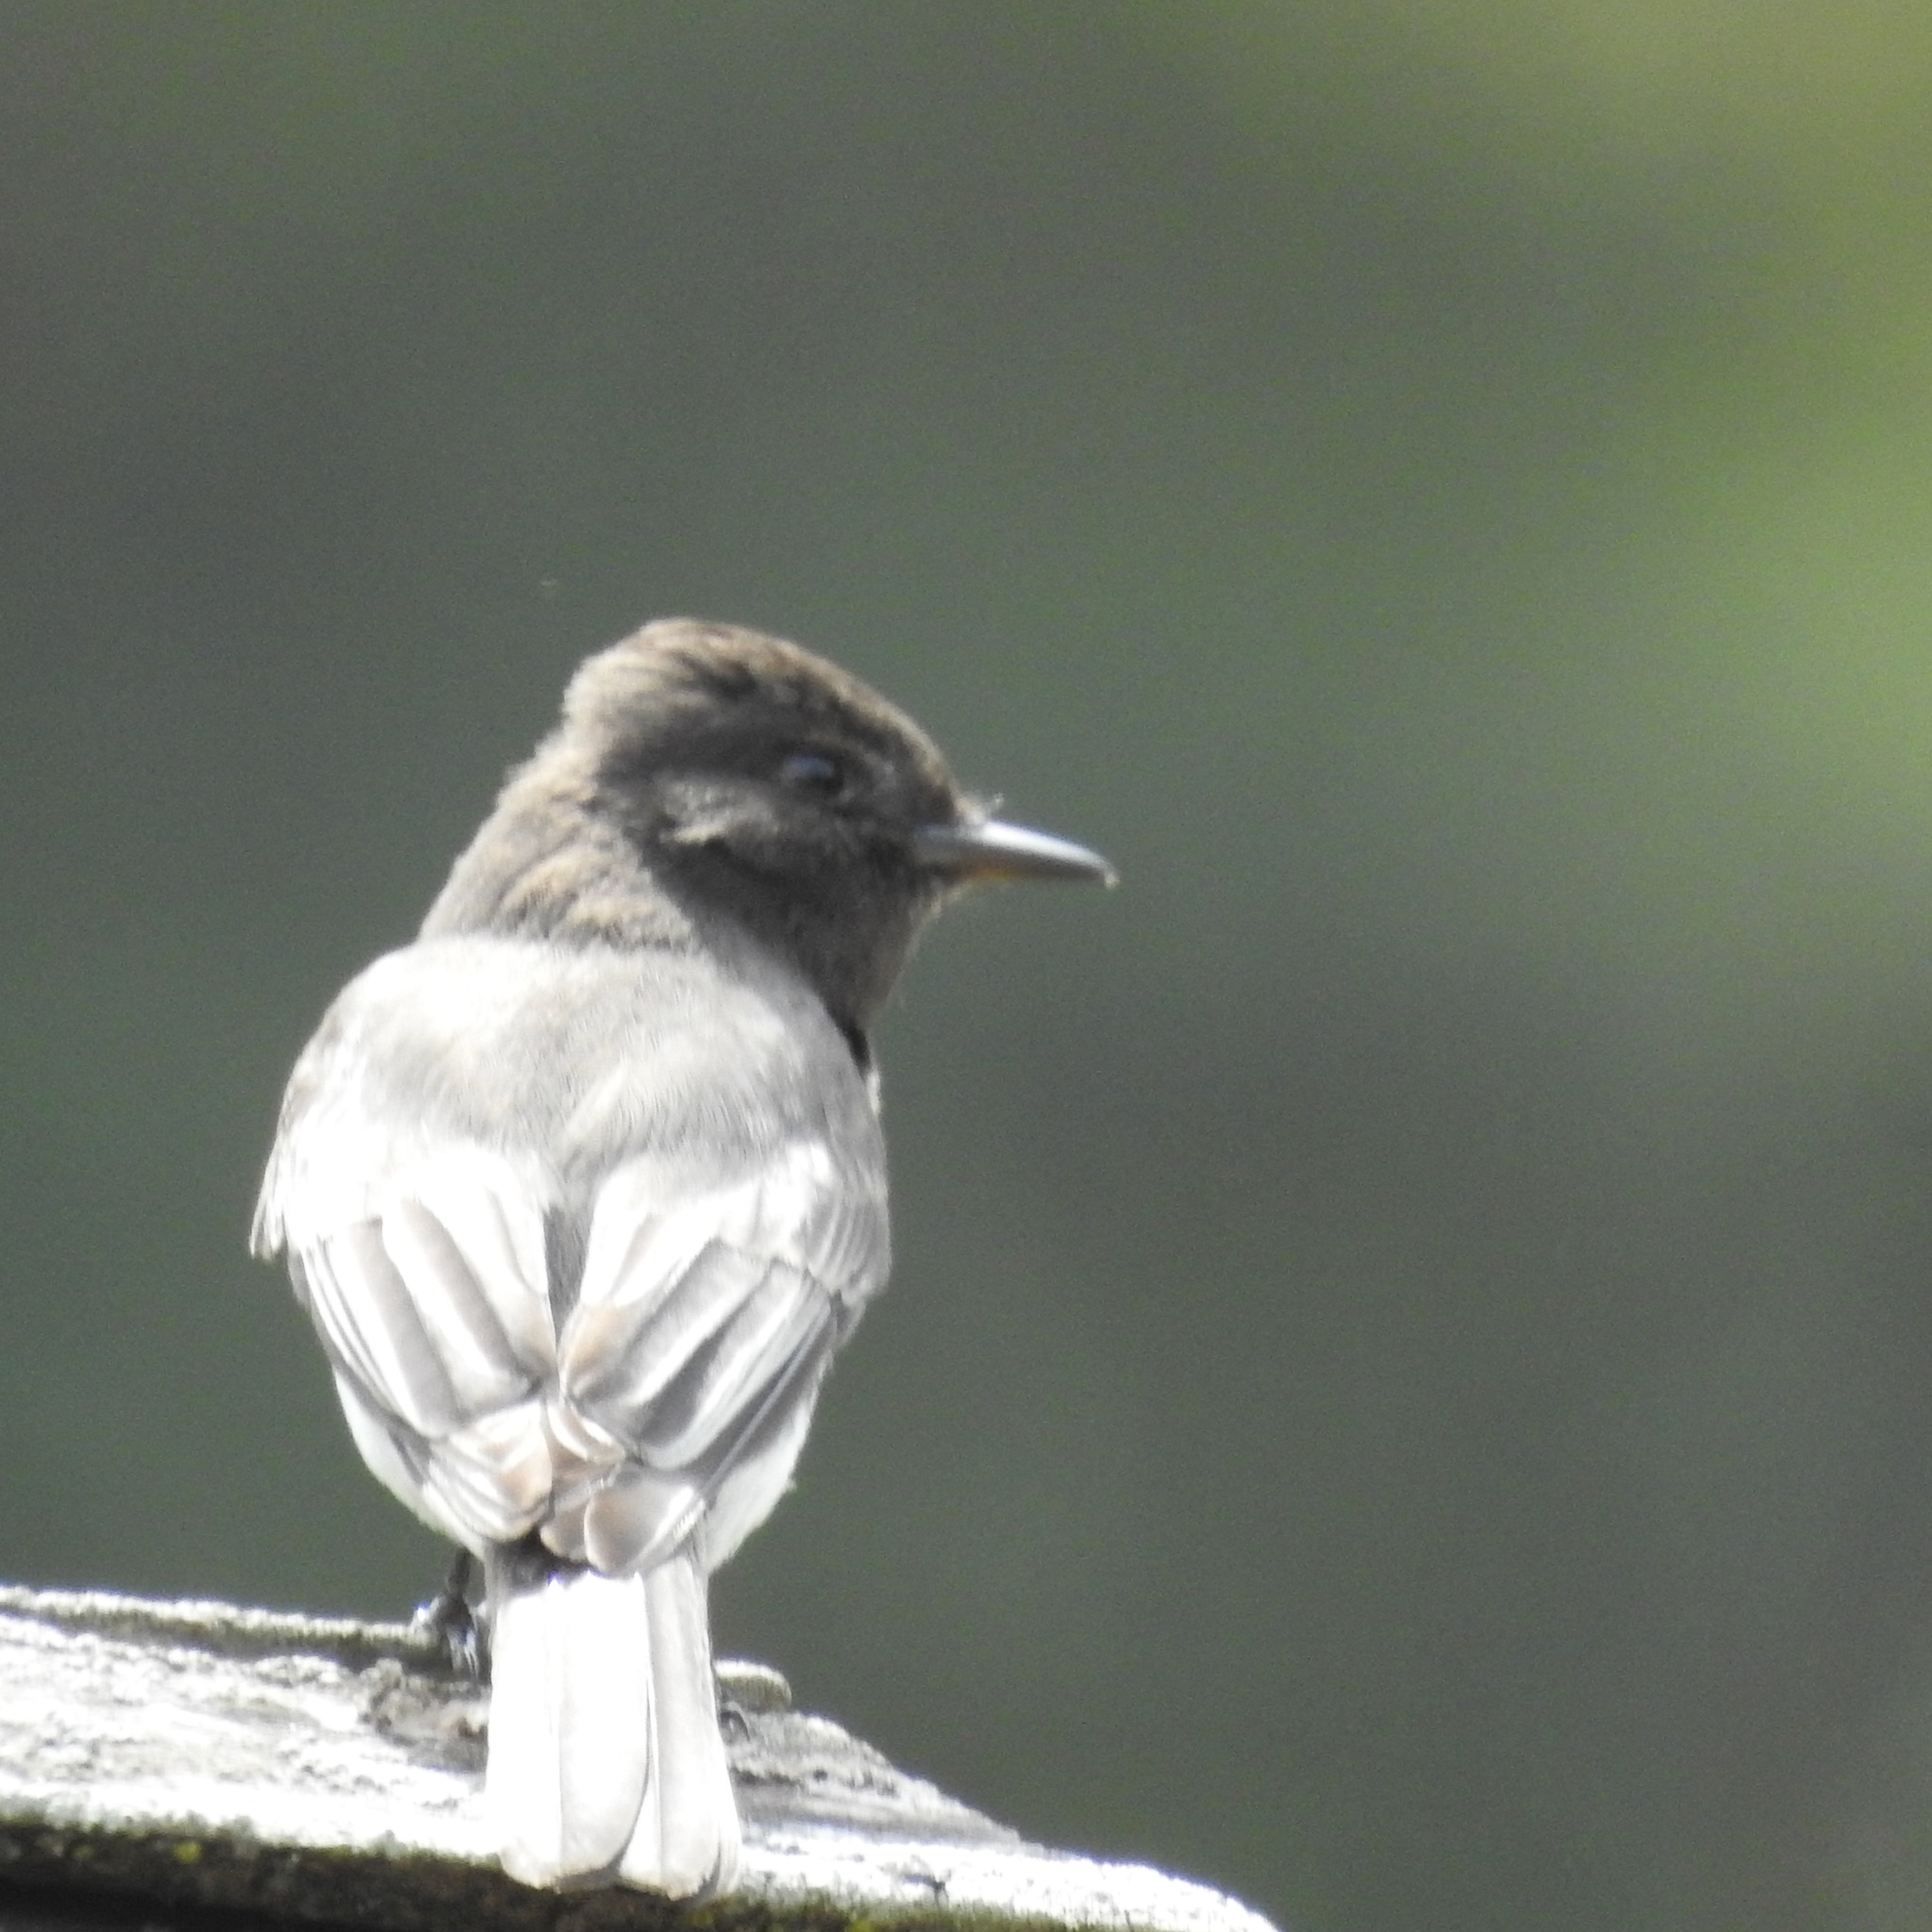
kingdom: Animalia
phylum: Chordata
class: Aves
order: Passeriformes
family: Tyrannidae
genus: Sayornis
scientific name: Sayornis nigricans
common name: Black phoebe
